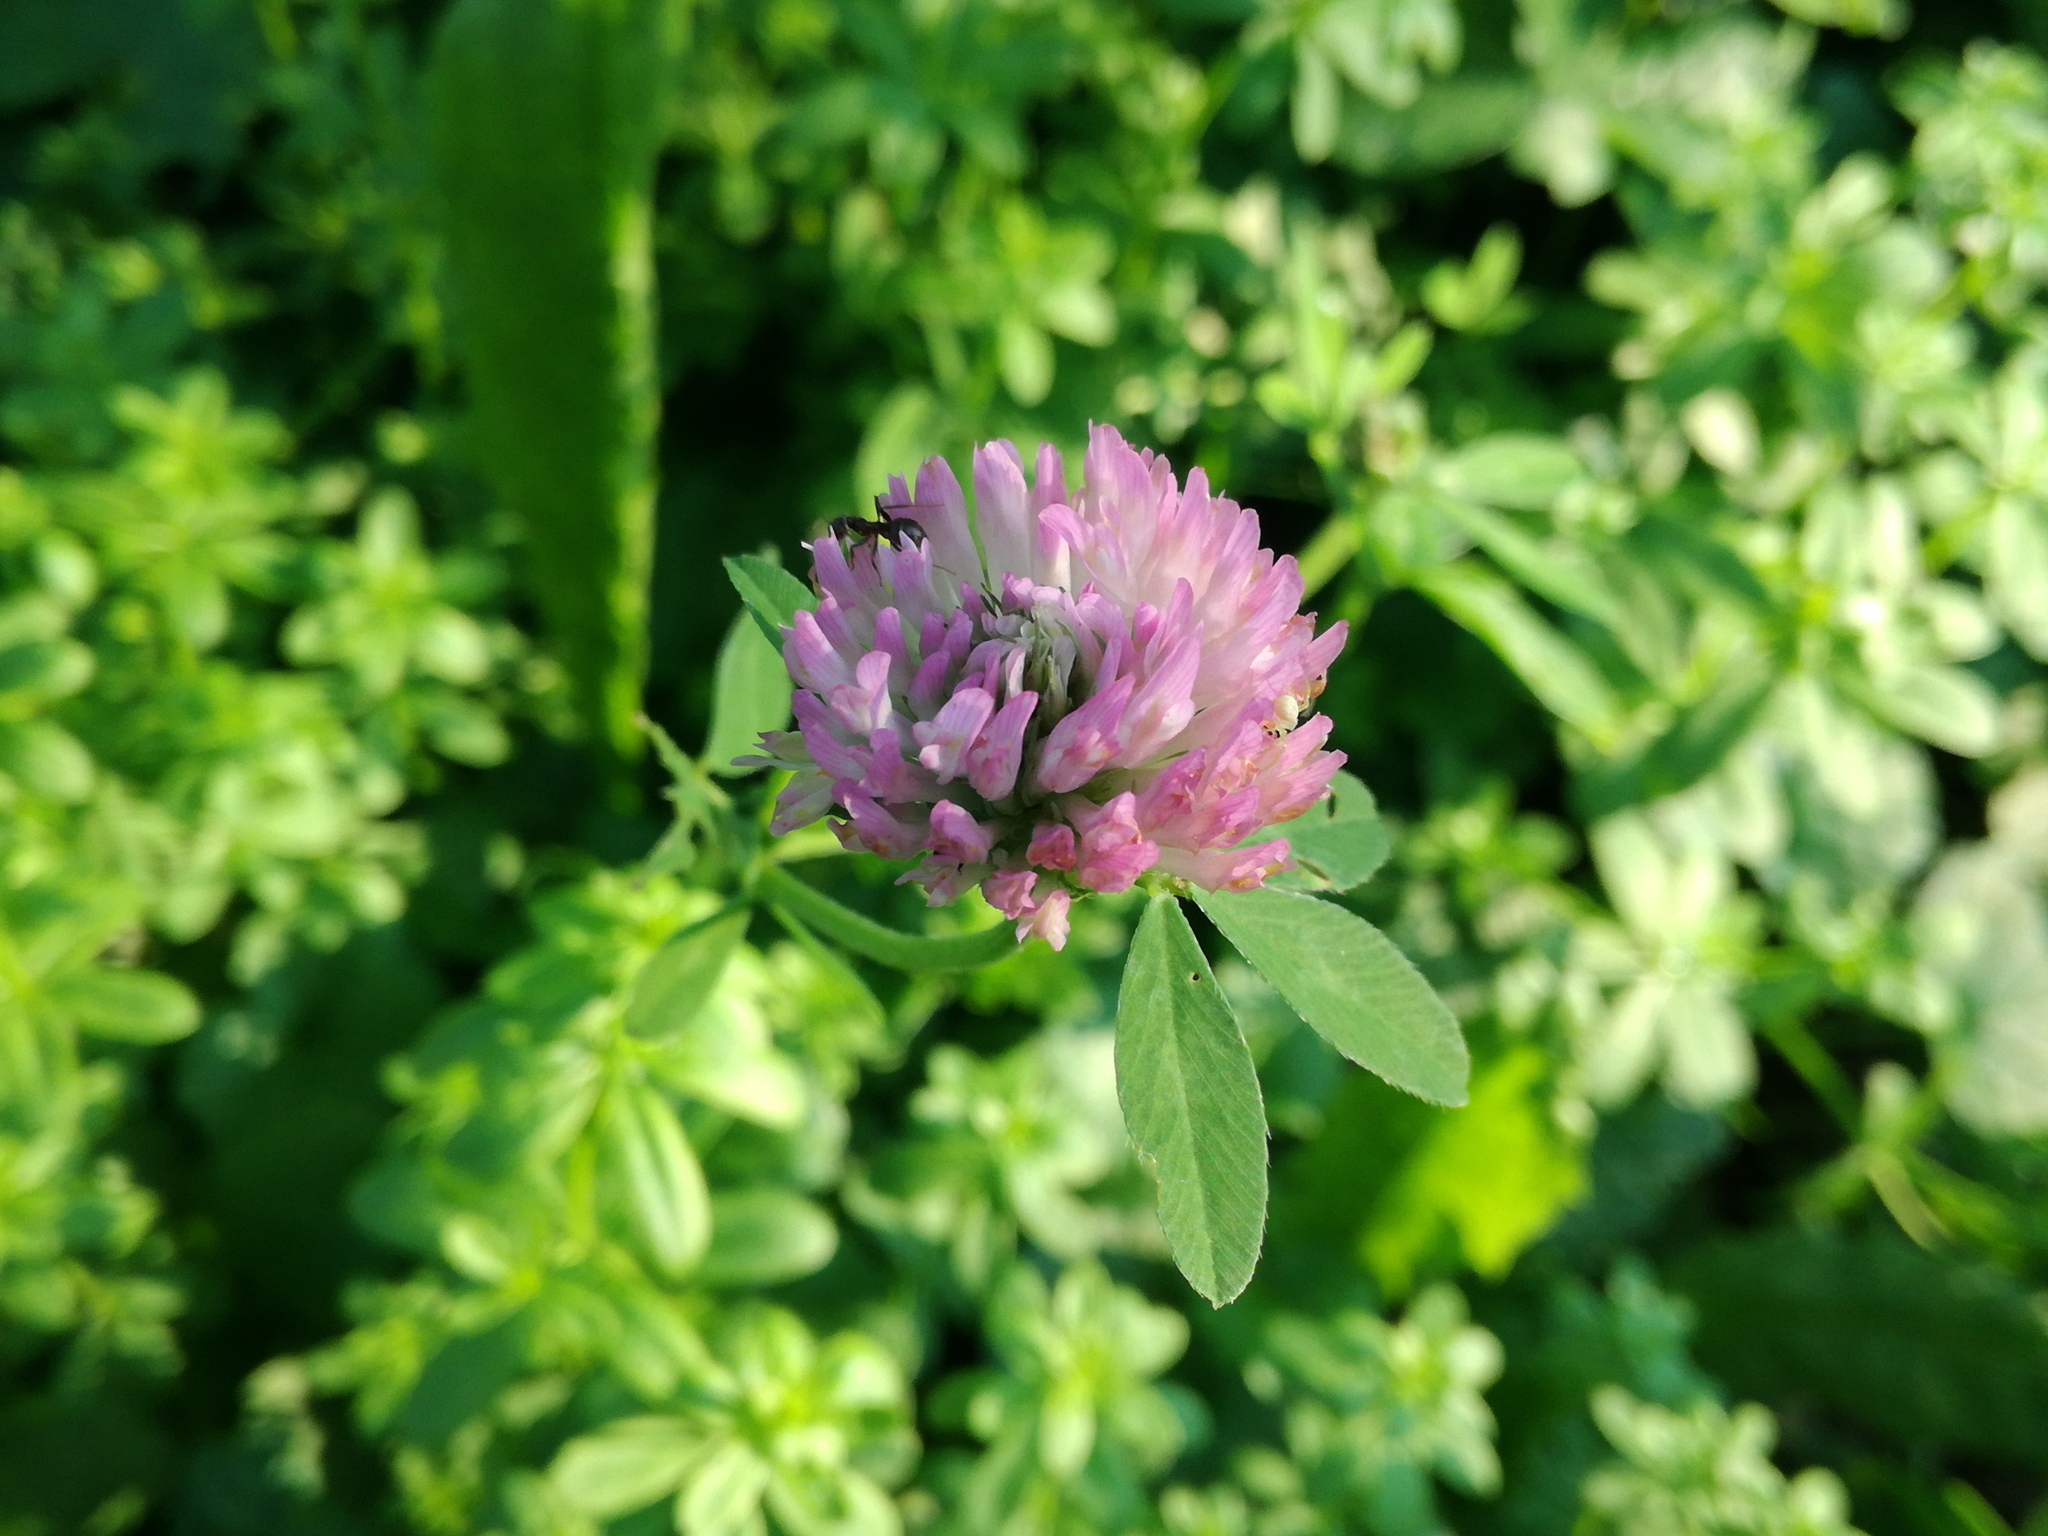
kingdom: Plantae
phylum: Tracheophyta
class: Magnoliopsida
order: Fabales
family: Fabaceae
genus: Trifolium
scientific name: Trifolium pratense
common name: Red clover
